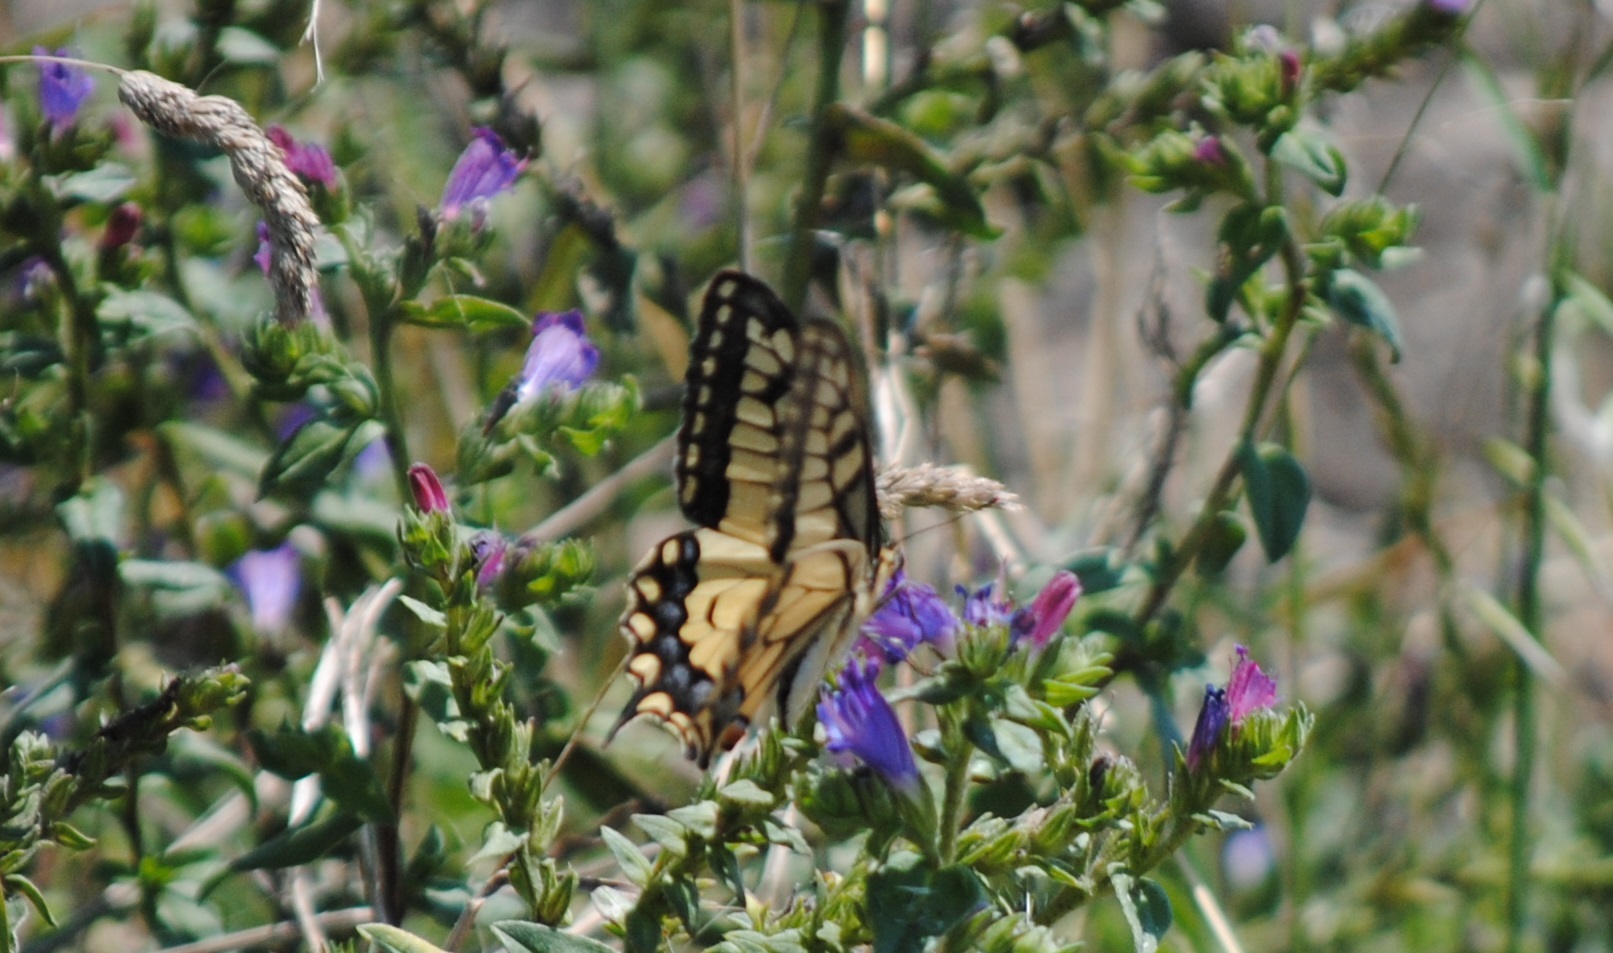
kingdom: Animalia
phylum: Arthropoda
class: Insecta
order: Lepidoptera
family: Papilionidae
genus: Papilio
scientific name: Papilio machaon
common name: Swallowtail
